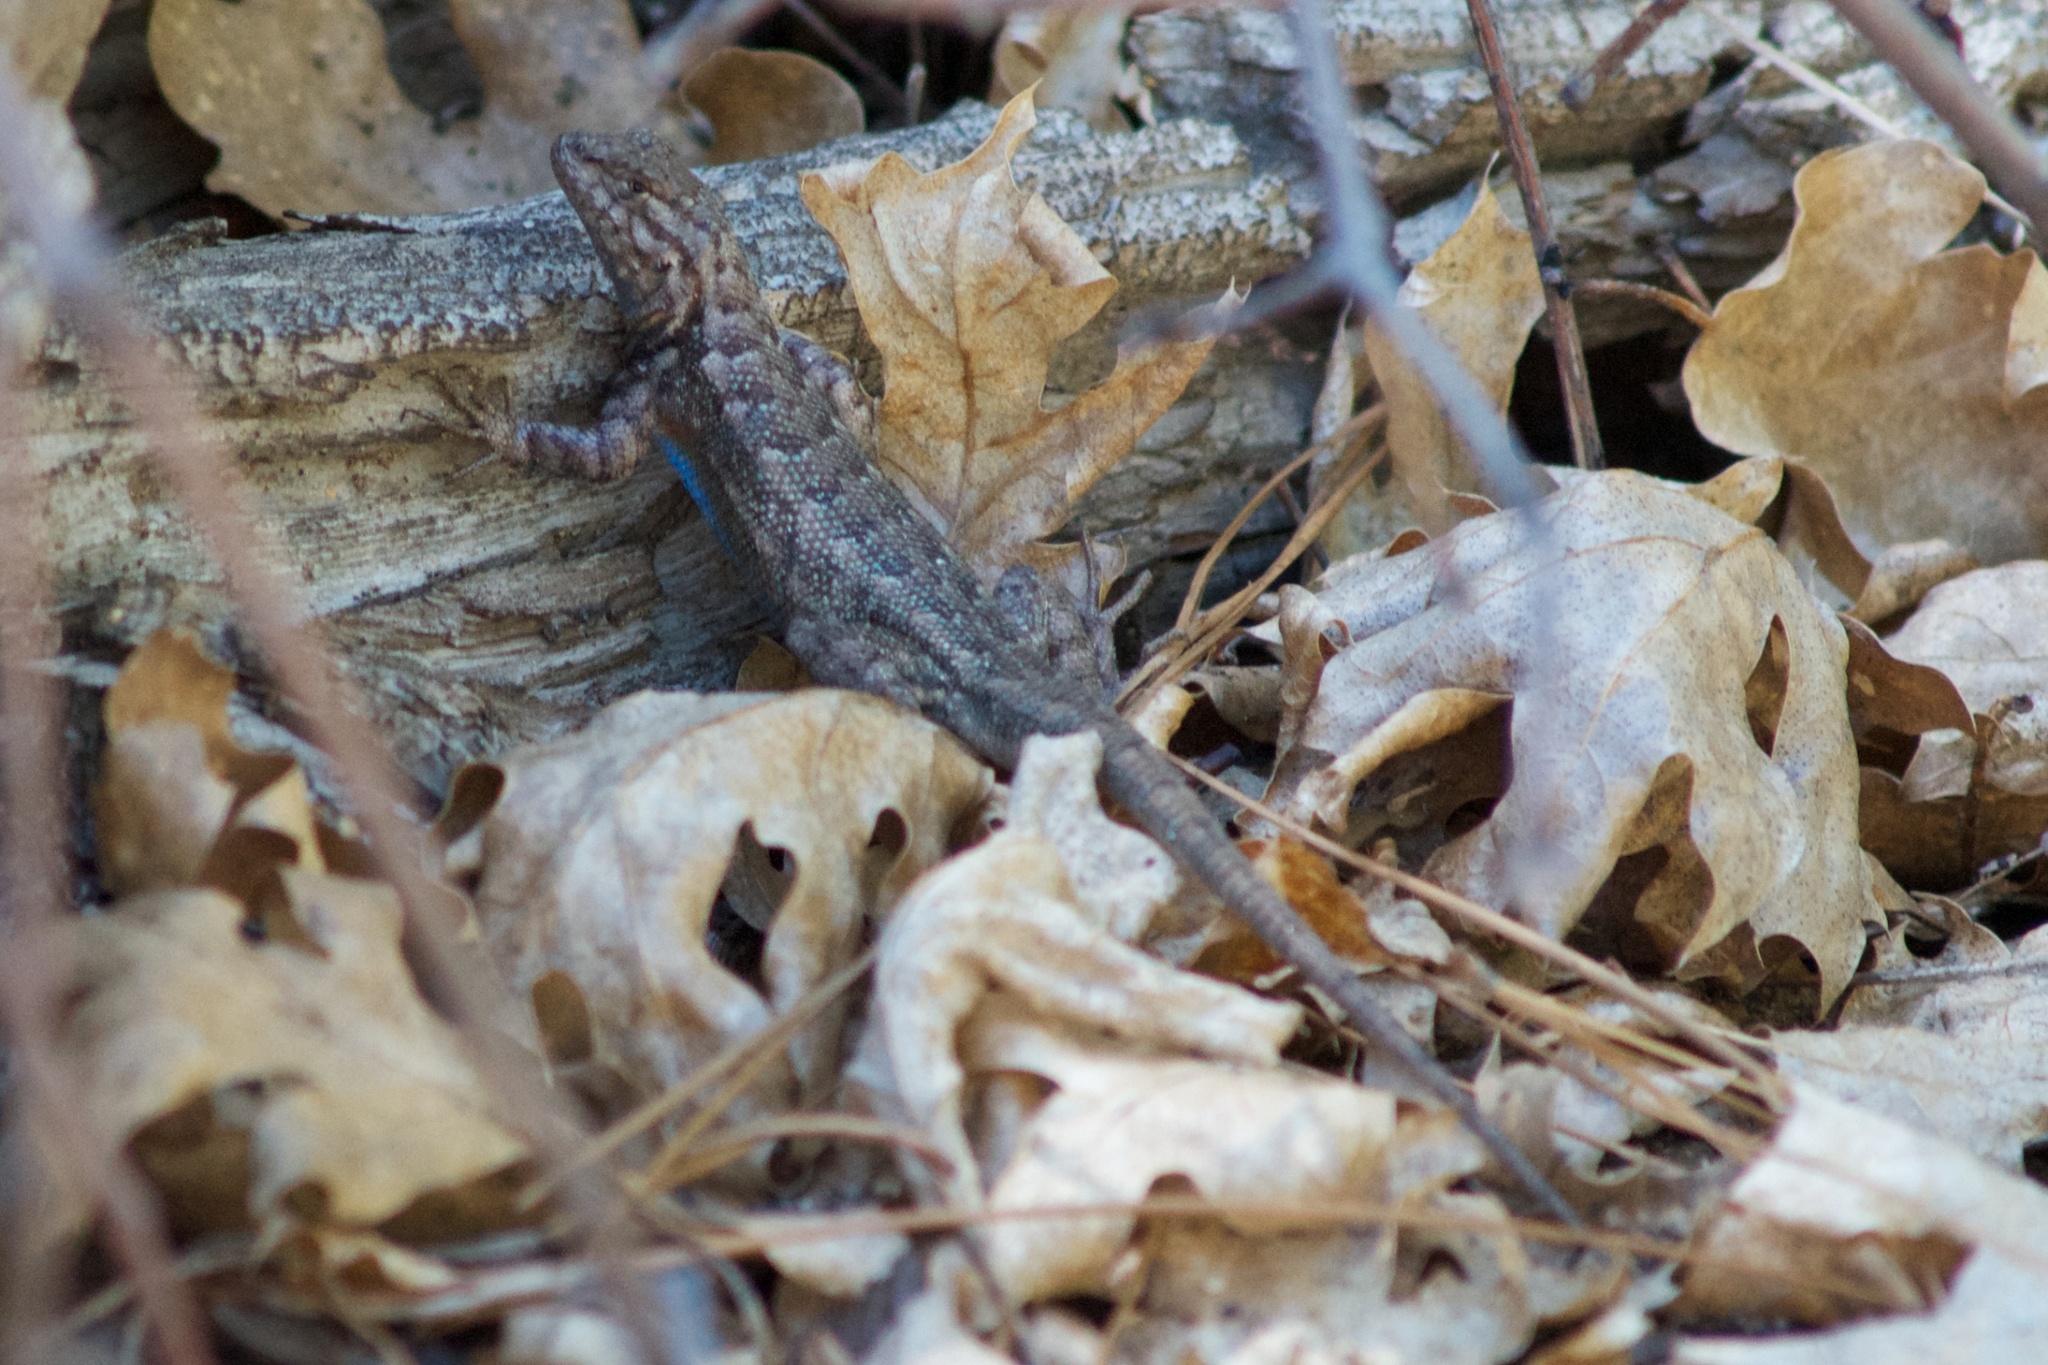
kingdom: Animalia
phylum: Chordata
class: Squamata
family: Phrynosomatidae
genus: Sceloporus
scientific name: Sceloporus graciosus
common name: Sagebrush lizard
